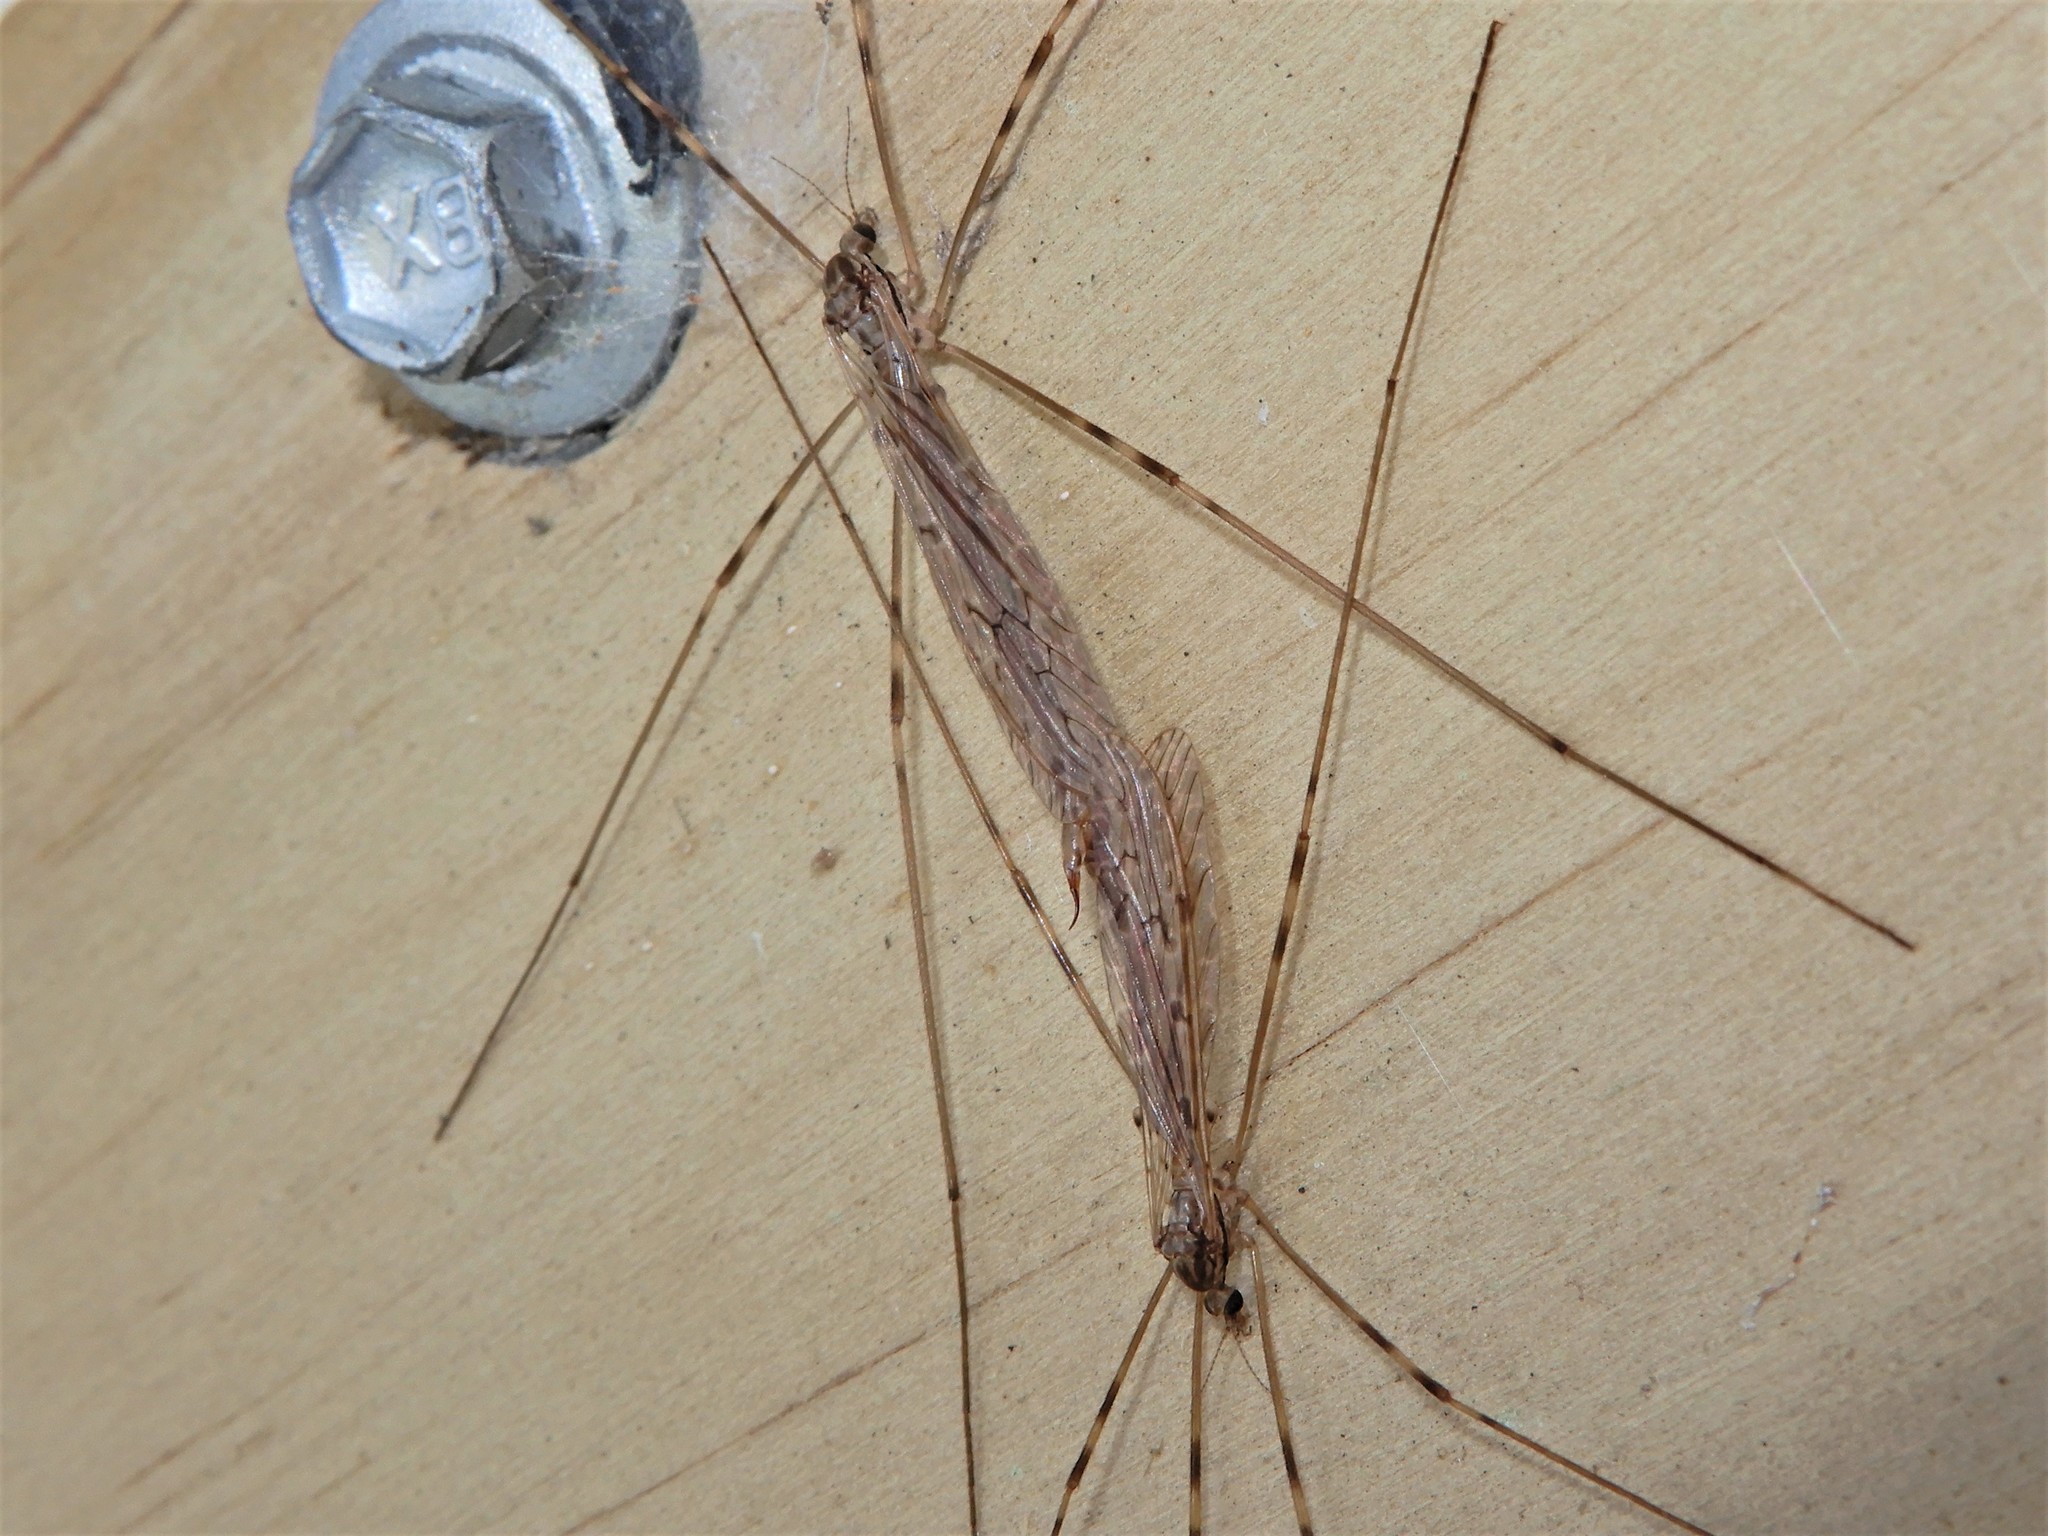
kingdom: Animalia
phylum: Arthropoda
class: Insecta
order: Diptera
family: Limoniidae
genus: Austrolimnophila
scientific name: Austrolimnophila crassipes
